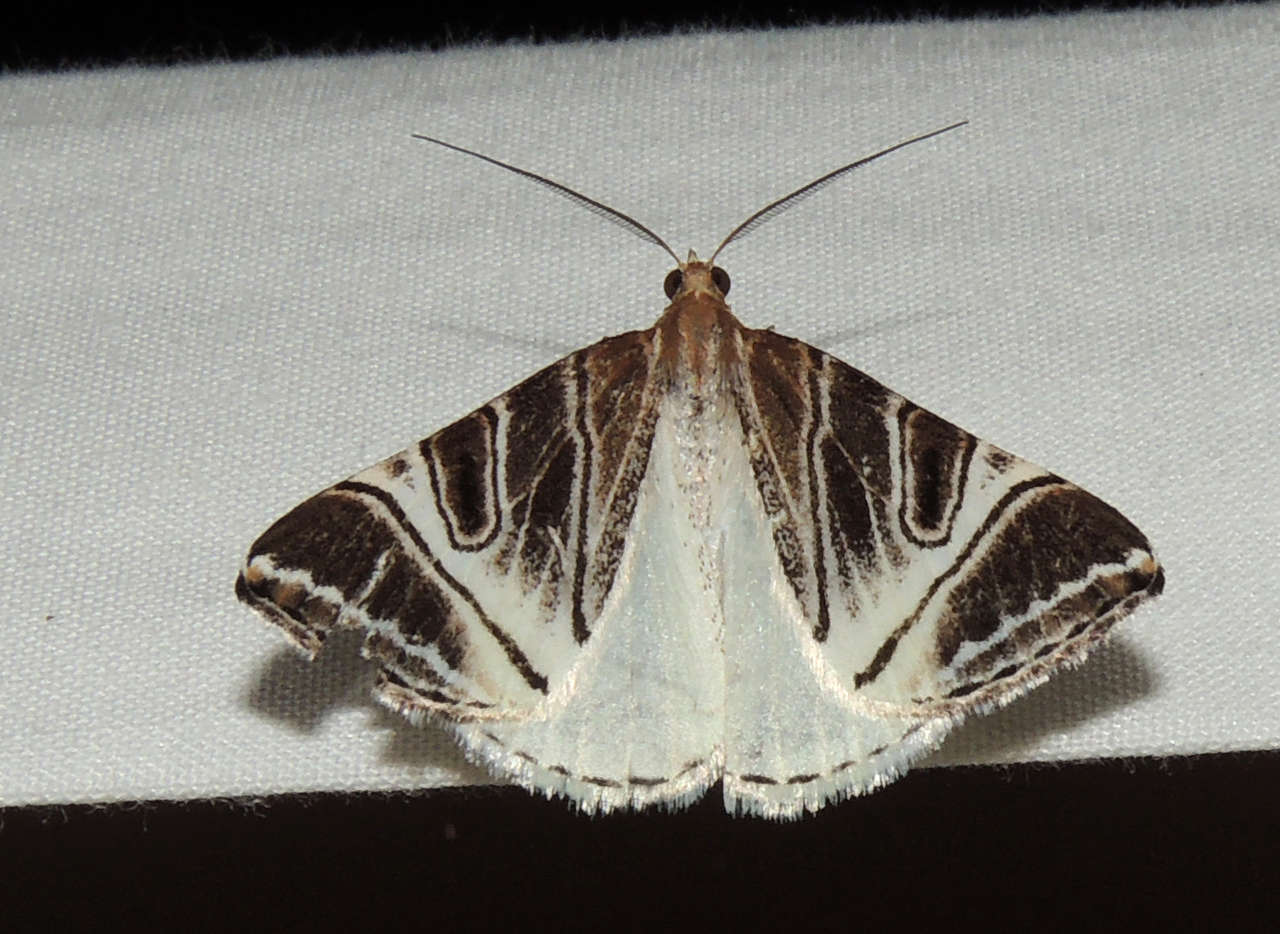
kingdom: Animalia
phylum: Arthropoda
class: Insecta
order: Lepidoptera
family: Geometridae
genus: Phrataria
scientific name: Phrataria replicataria
